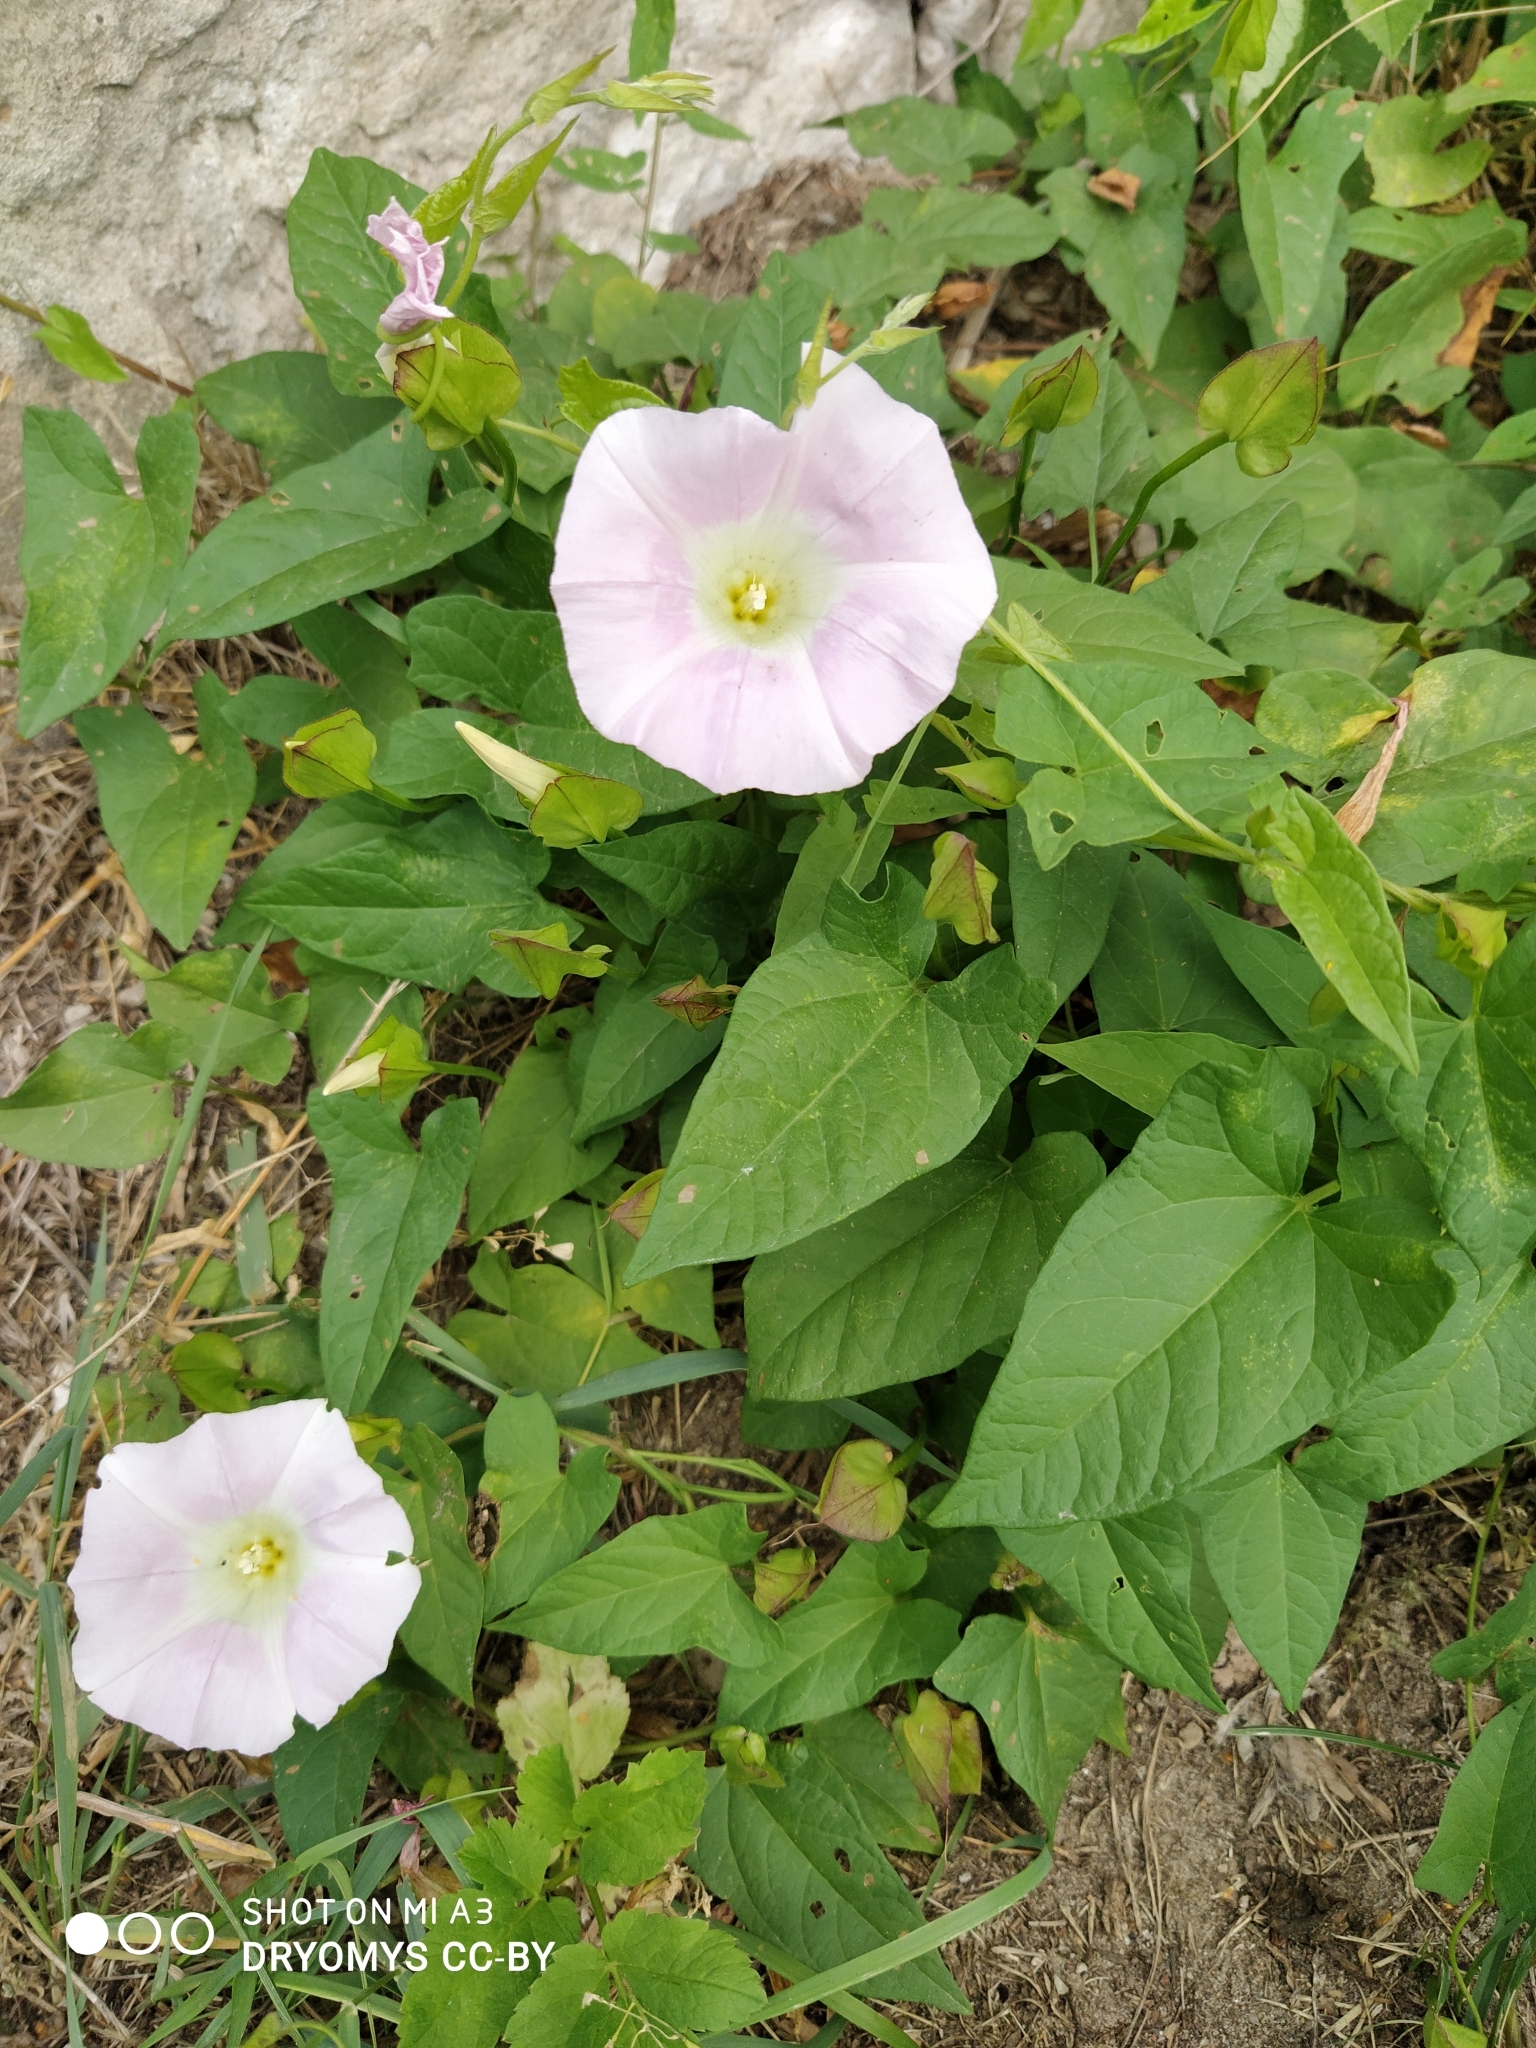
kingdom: Plantae
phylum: Tracheophyta
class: Magnoliopsida
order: Solanales
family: Convolvulaceae
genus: Calystegia
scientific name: Calystegia sepium
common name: Hedge bindweed
